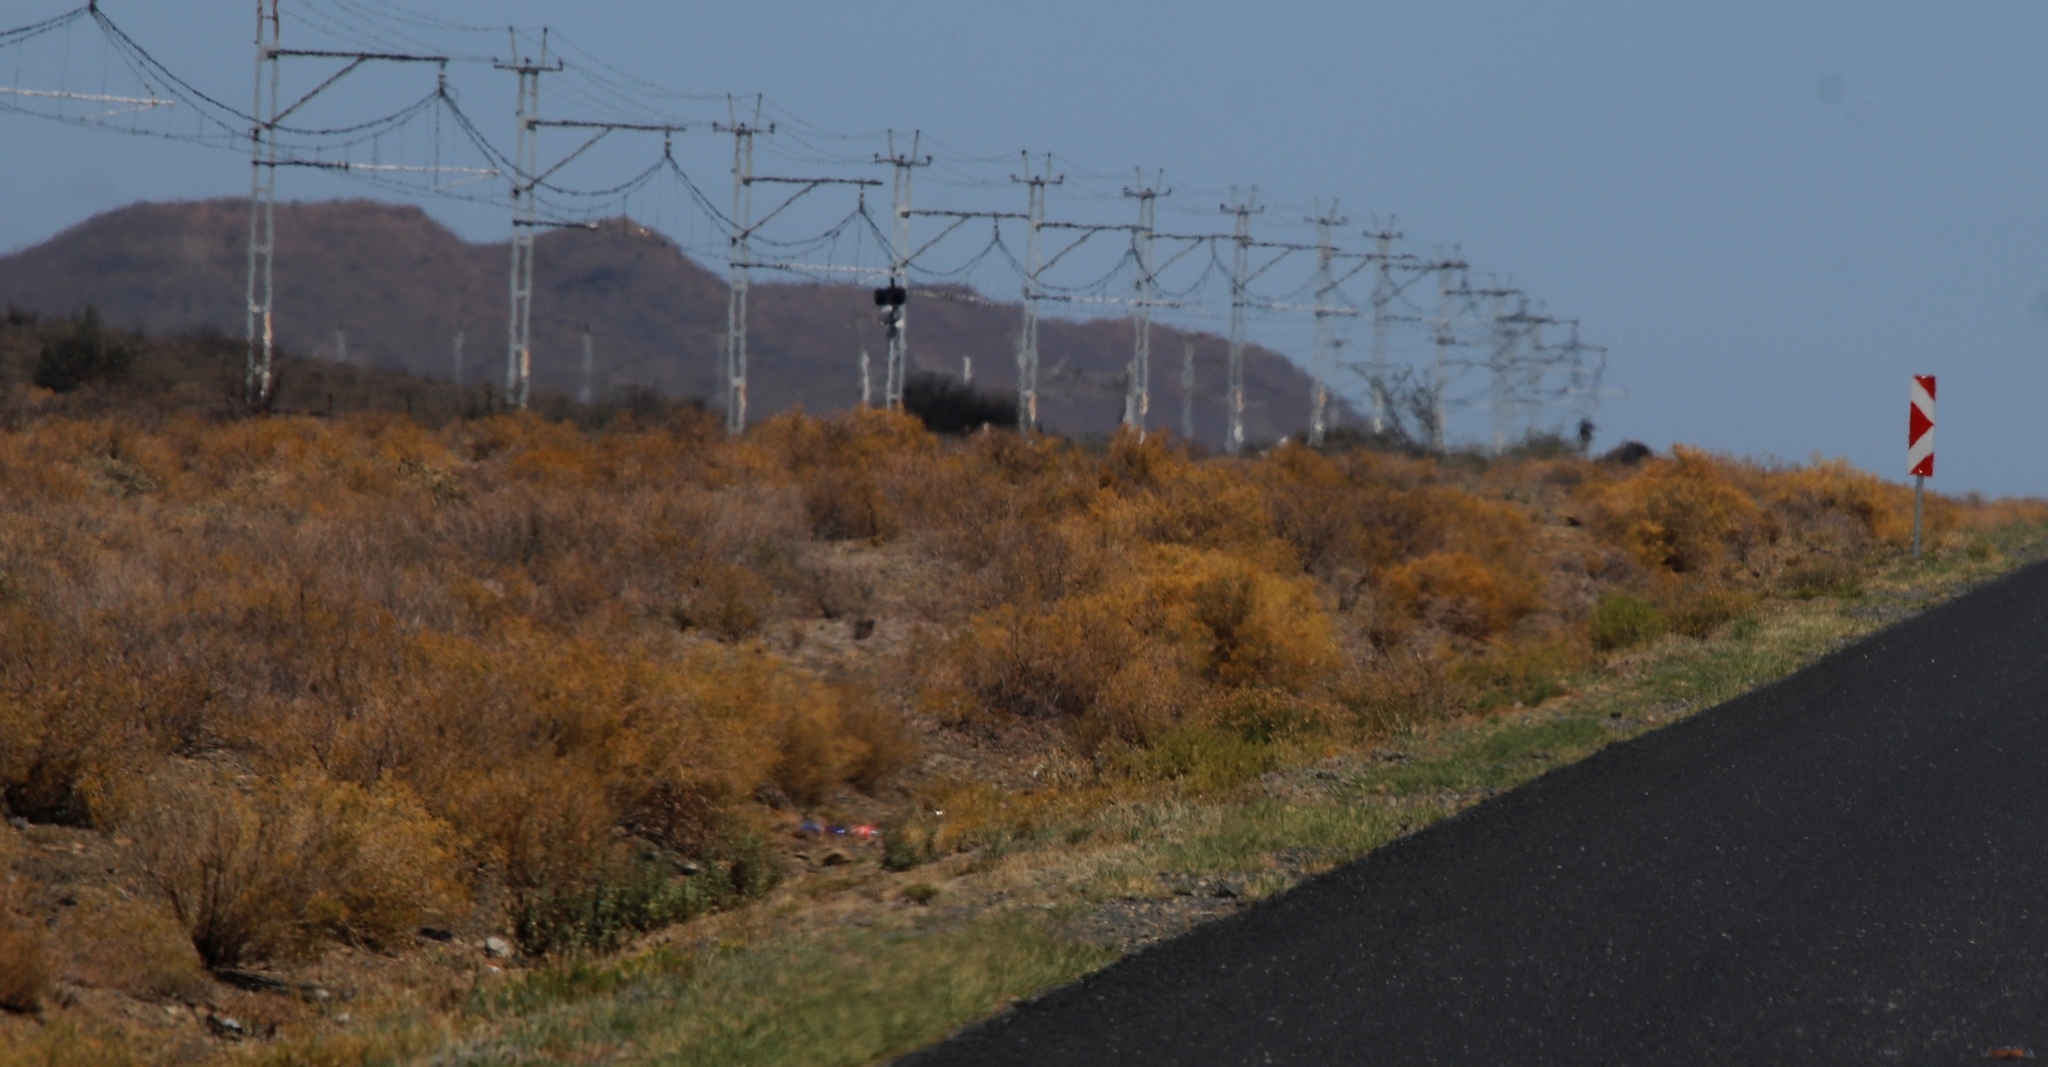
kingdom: Plantae
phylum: Tracheophyta
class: Magnoliopsida
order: Caryophyllales
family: Aizoaceae
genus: Aizoon
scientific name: Aizoon africanum
